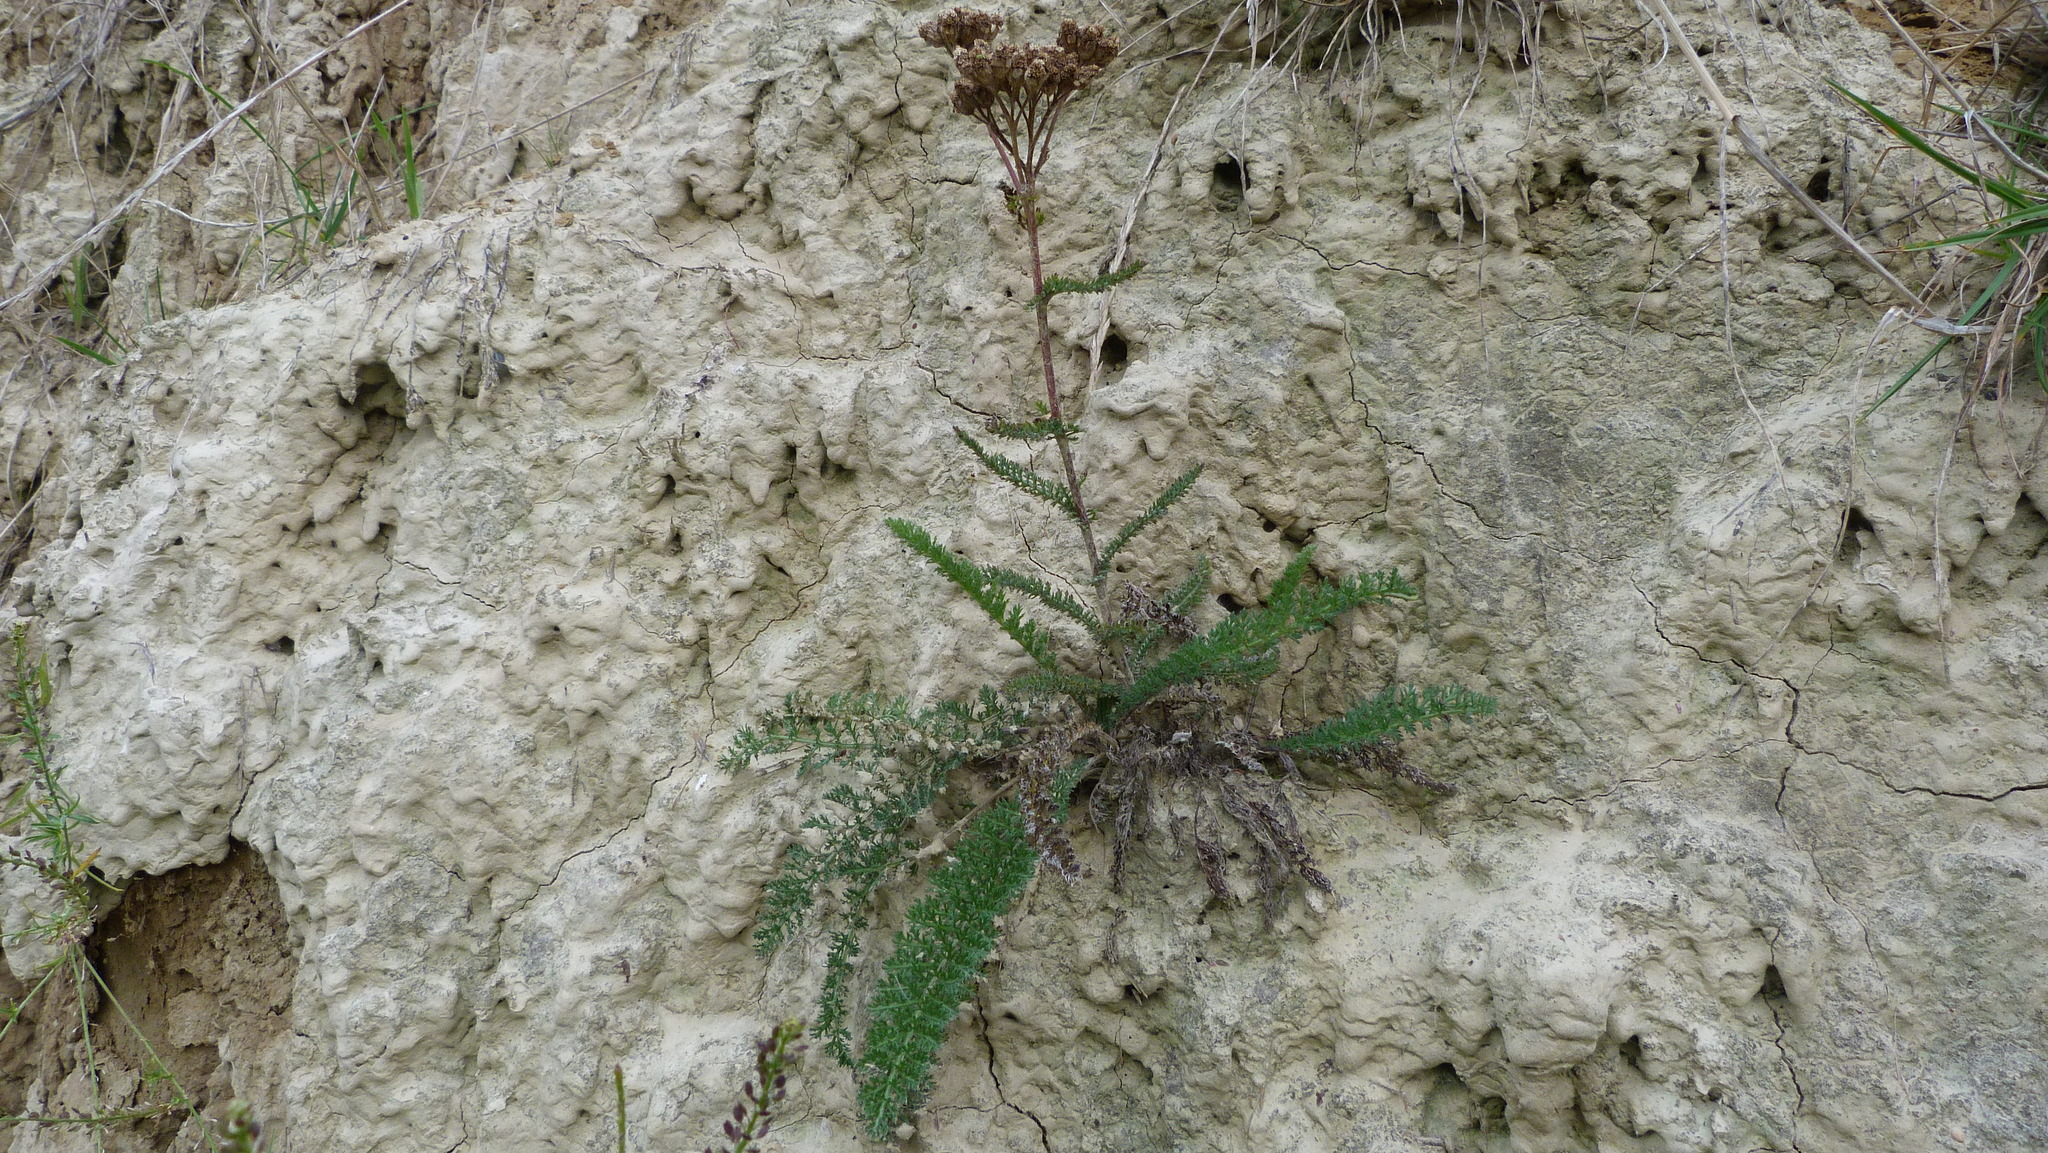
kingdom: Plantae
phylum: Tracheophyta
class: Magnoliopsida
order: Asterales
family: Asteraceae
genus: Achillea
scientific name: Achillea millefolium
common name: Yarrow
